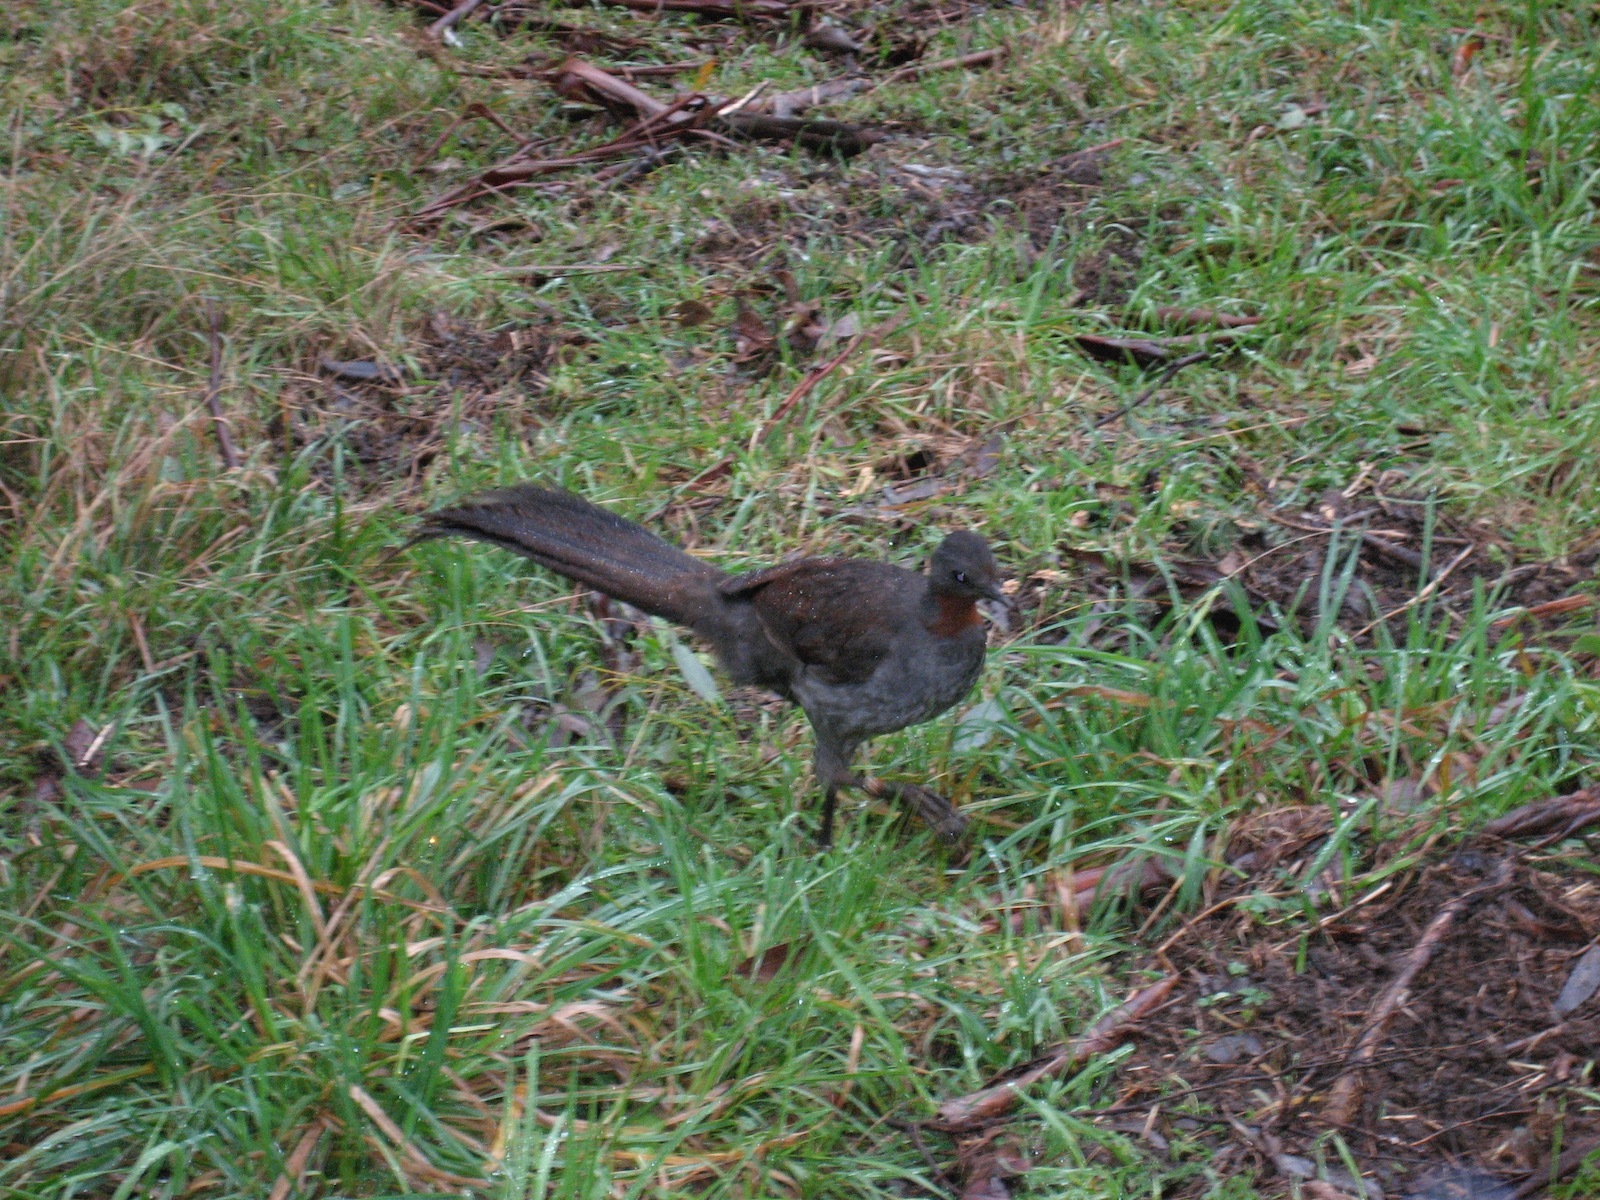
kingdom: Animalia
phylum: Chordata
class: Aves
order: Passeriformes
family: Menuridae
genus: Menura
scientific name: Menura novaehollandiae
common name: Superb lyrebird
